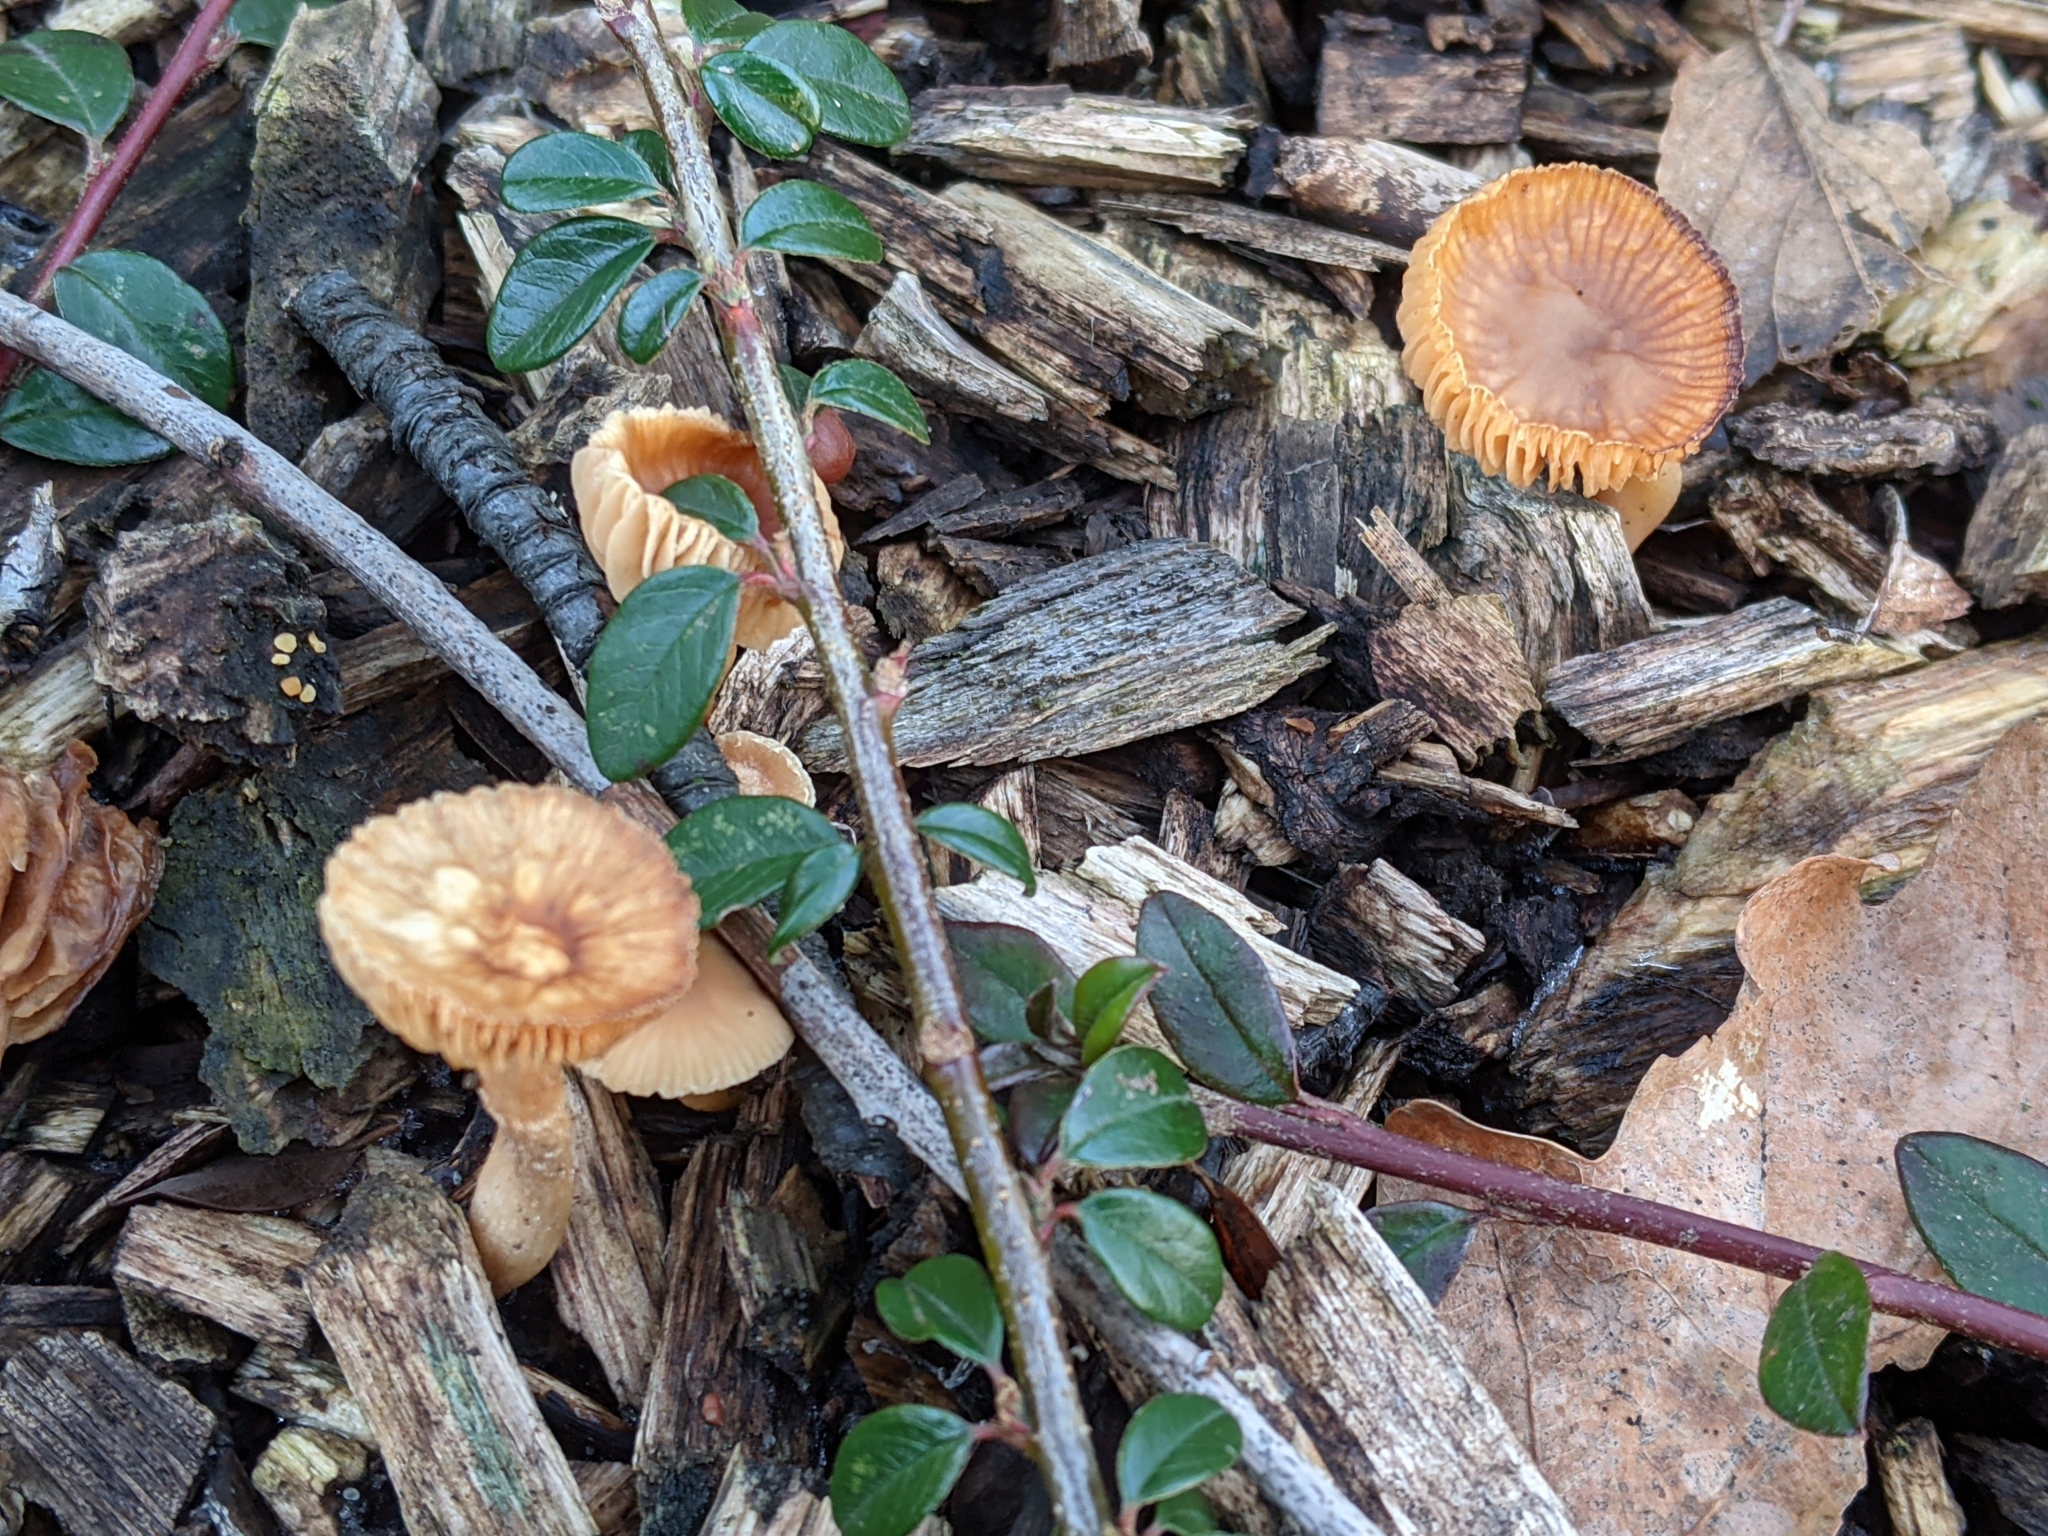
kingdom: Fungi
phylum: Basidiomycota
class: Agaricomycetes
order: Agaricales
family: Tubariaceae
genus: Tubaria
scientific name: Tubaria furfuracea
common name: Scurfy twiglet
